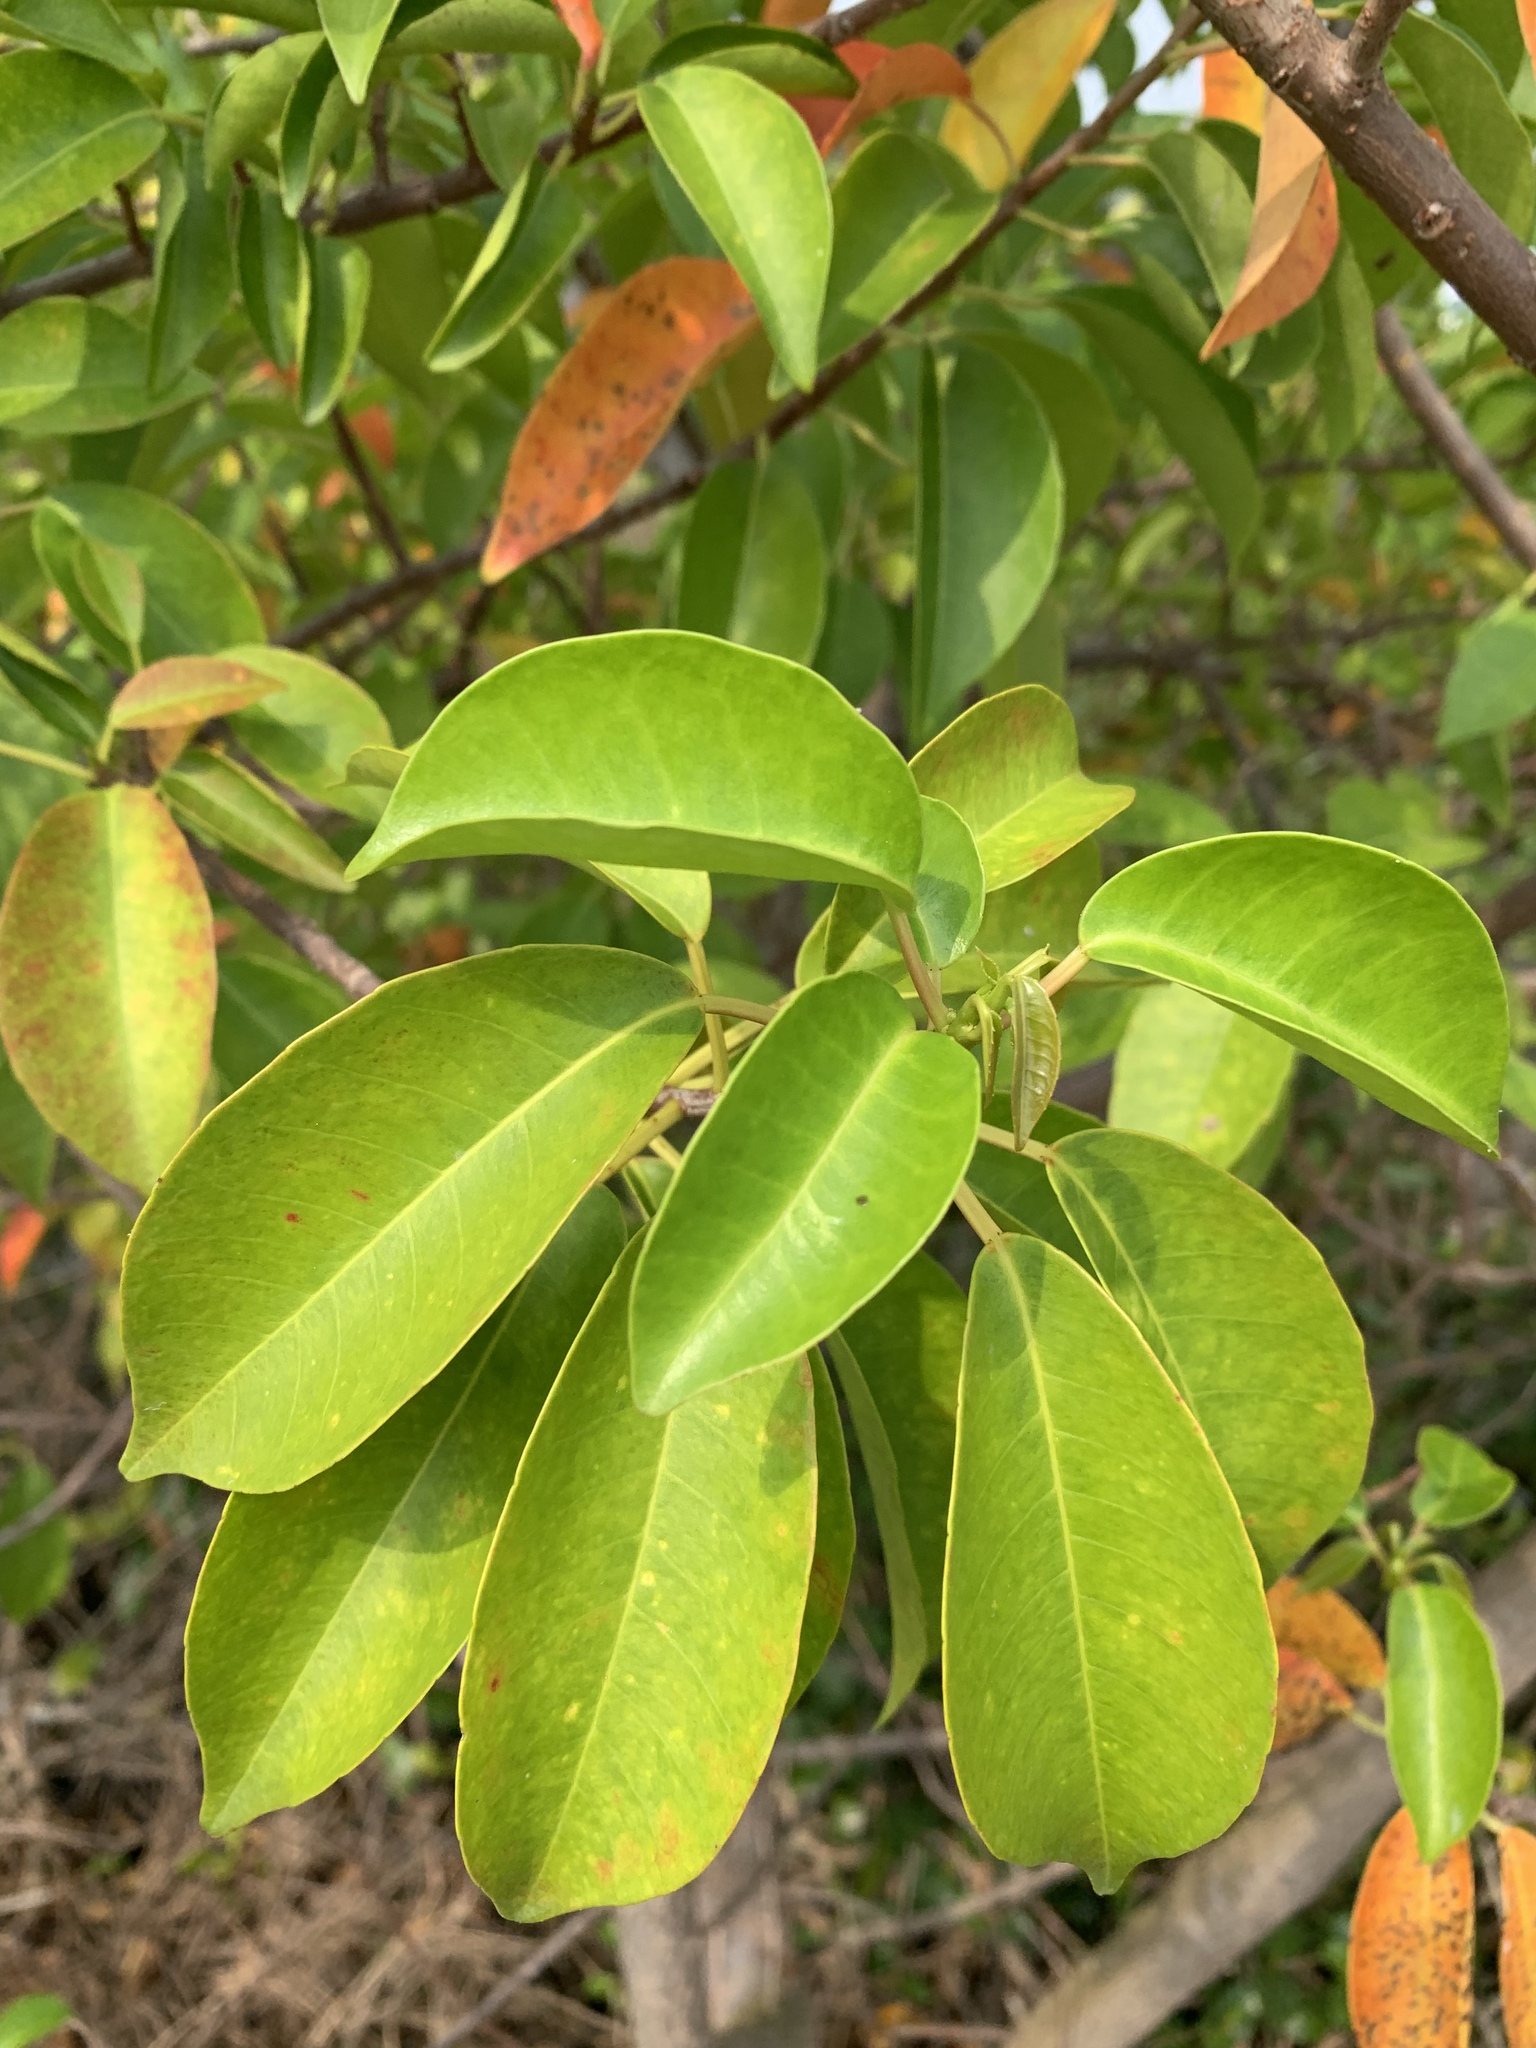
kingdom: Plantae
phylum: Tracheophyta
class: Magnoliopsida
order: Malpighiales
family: Euphorbiaceae
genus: Excoecaria
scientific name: Excoecaria agallocha
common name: River poisontree
